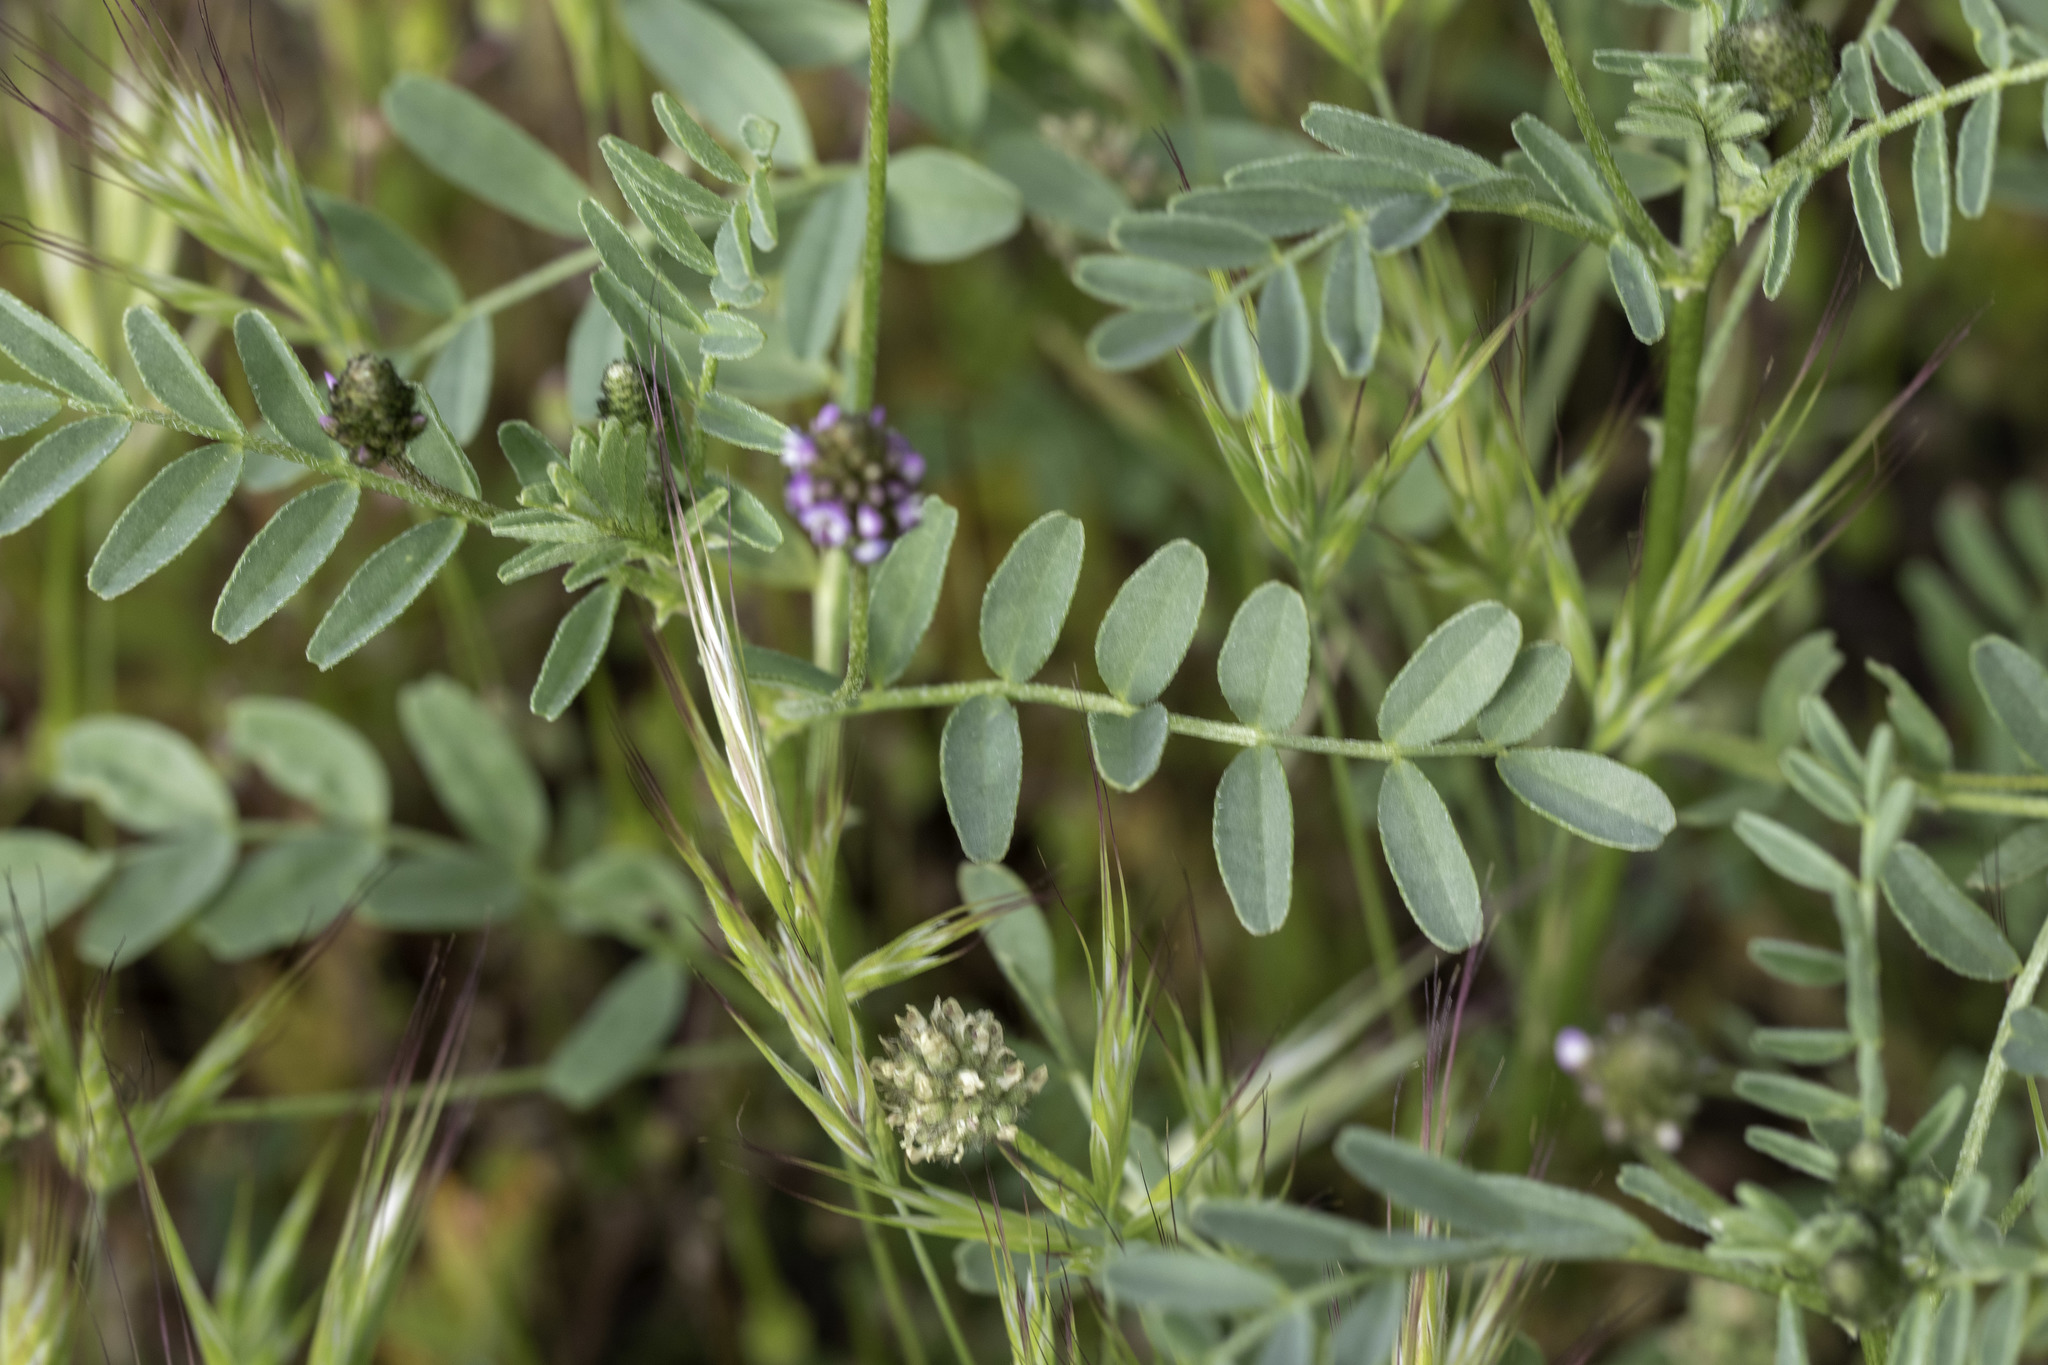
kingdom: Plantae
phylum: Tracheophyta
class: Magnoliopsida
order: Fabales
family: Fabaceae
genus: Astragalus
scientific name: Astragalus didymocarpus
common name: Dwarf white milkvetch
